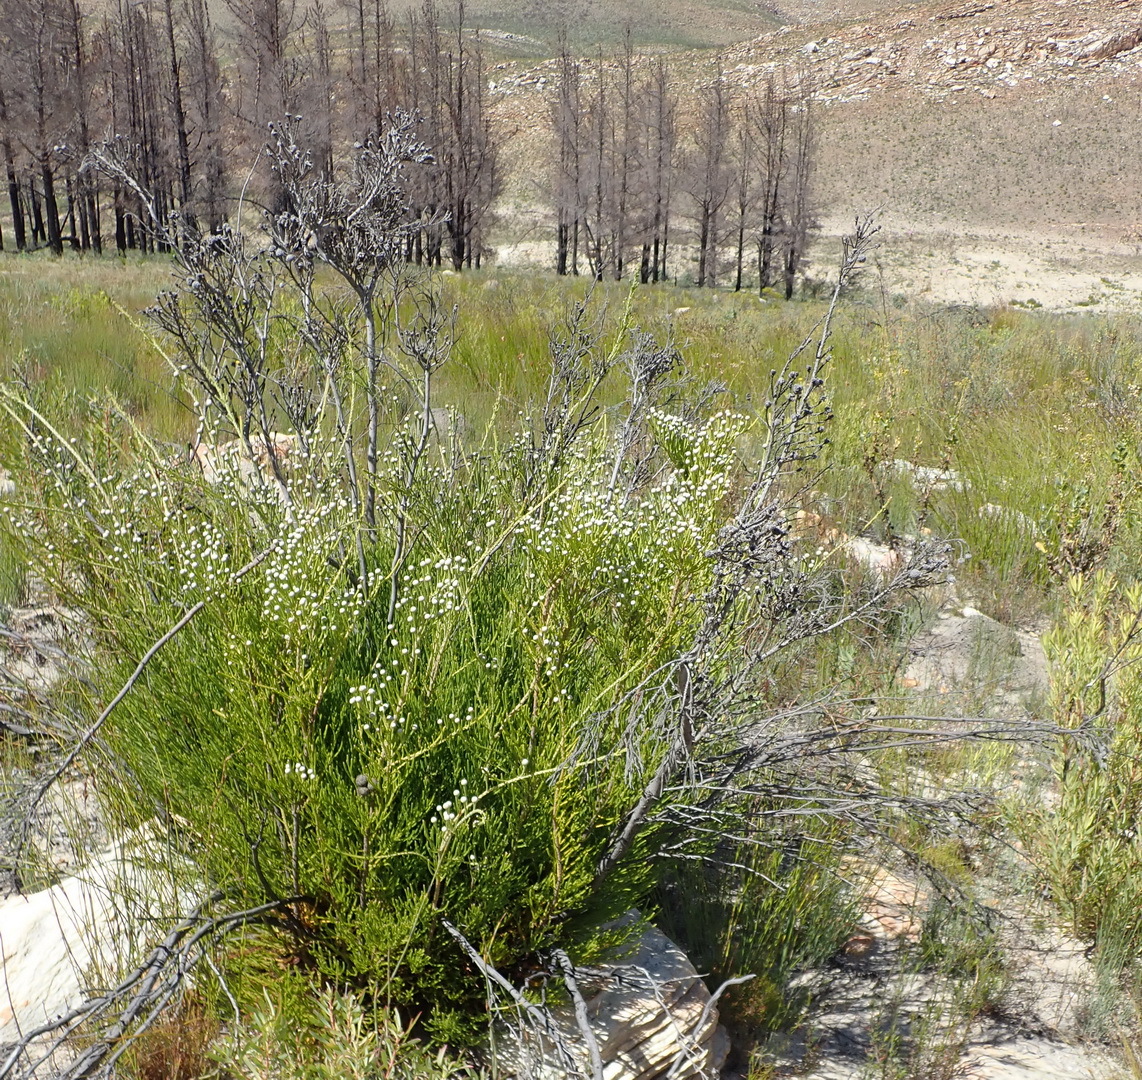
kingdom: Plantae
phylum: Tracheophyta
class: Magnoliopsida
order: Bruniales
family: Bruniaceae
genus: Brunia
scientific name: Brunia noduliflora
